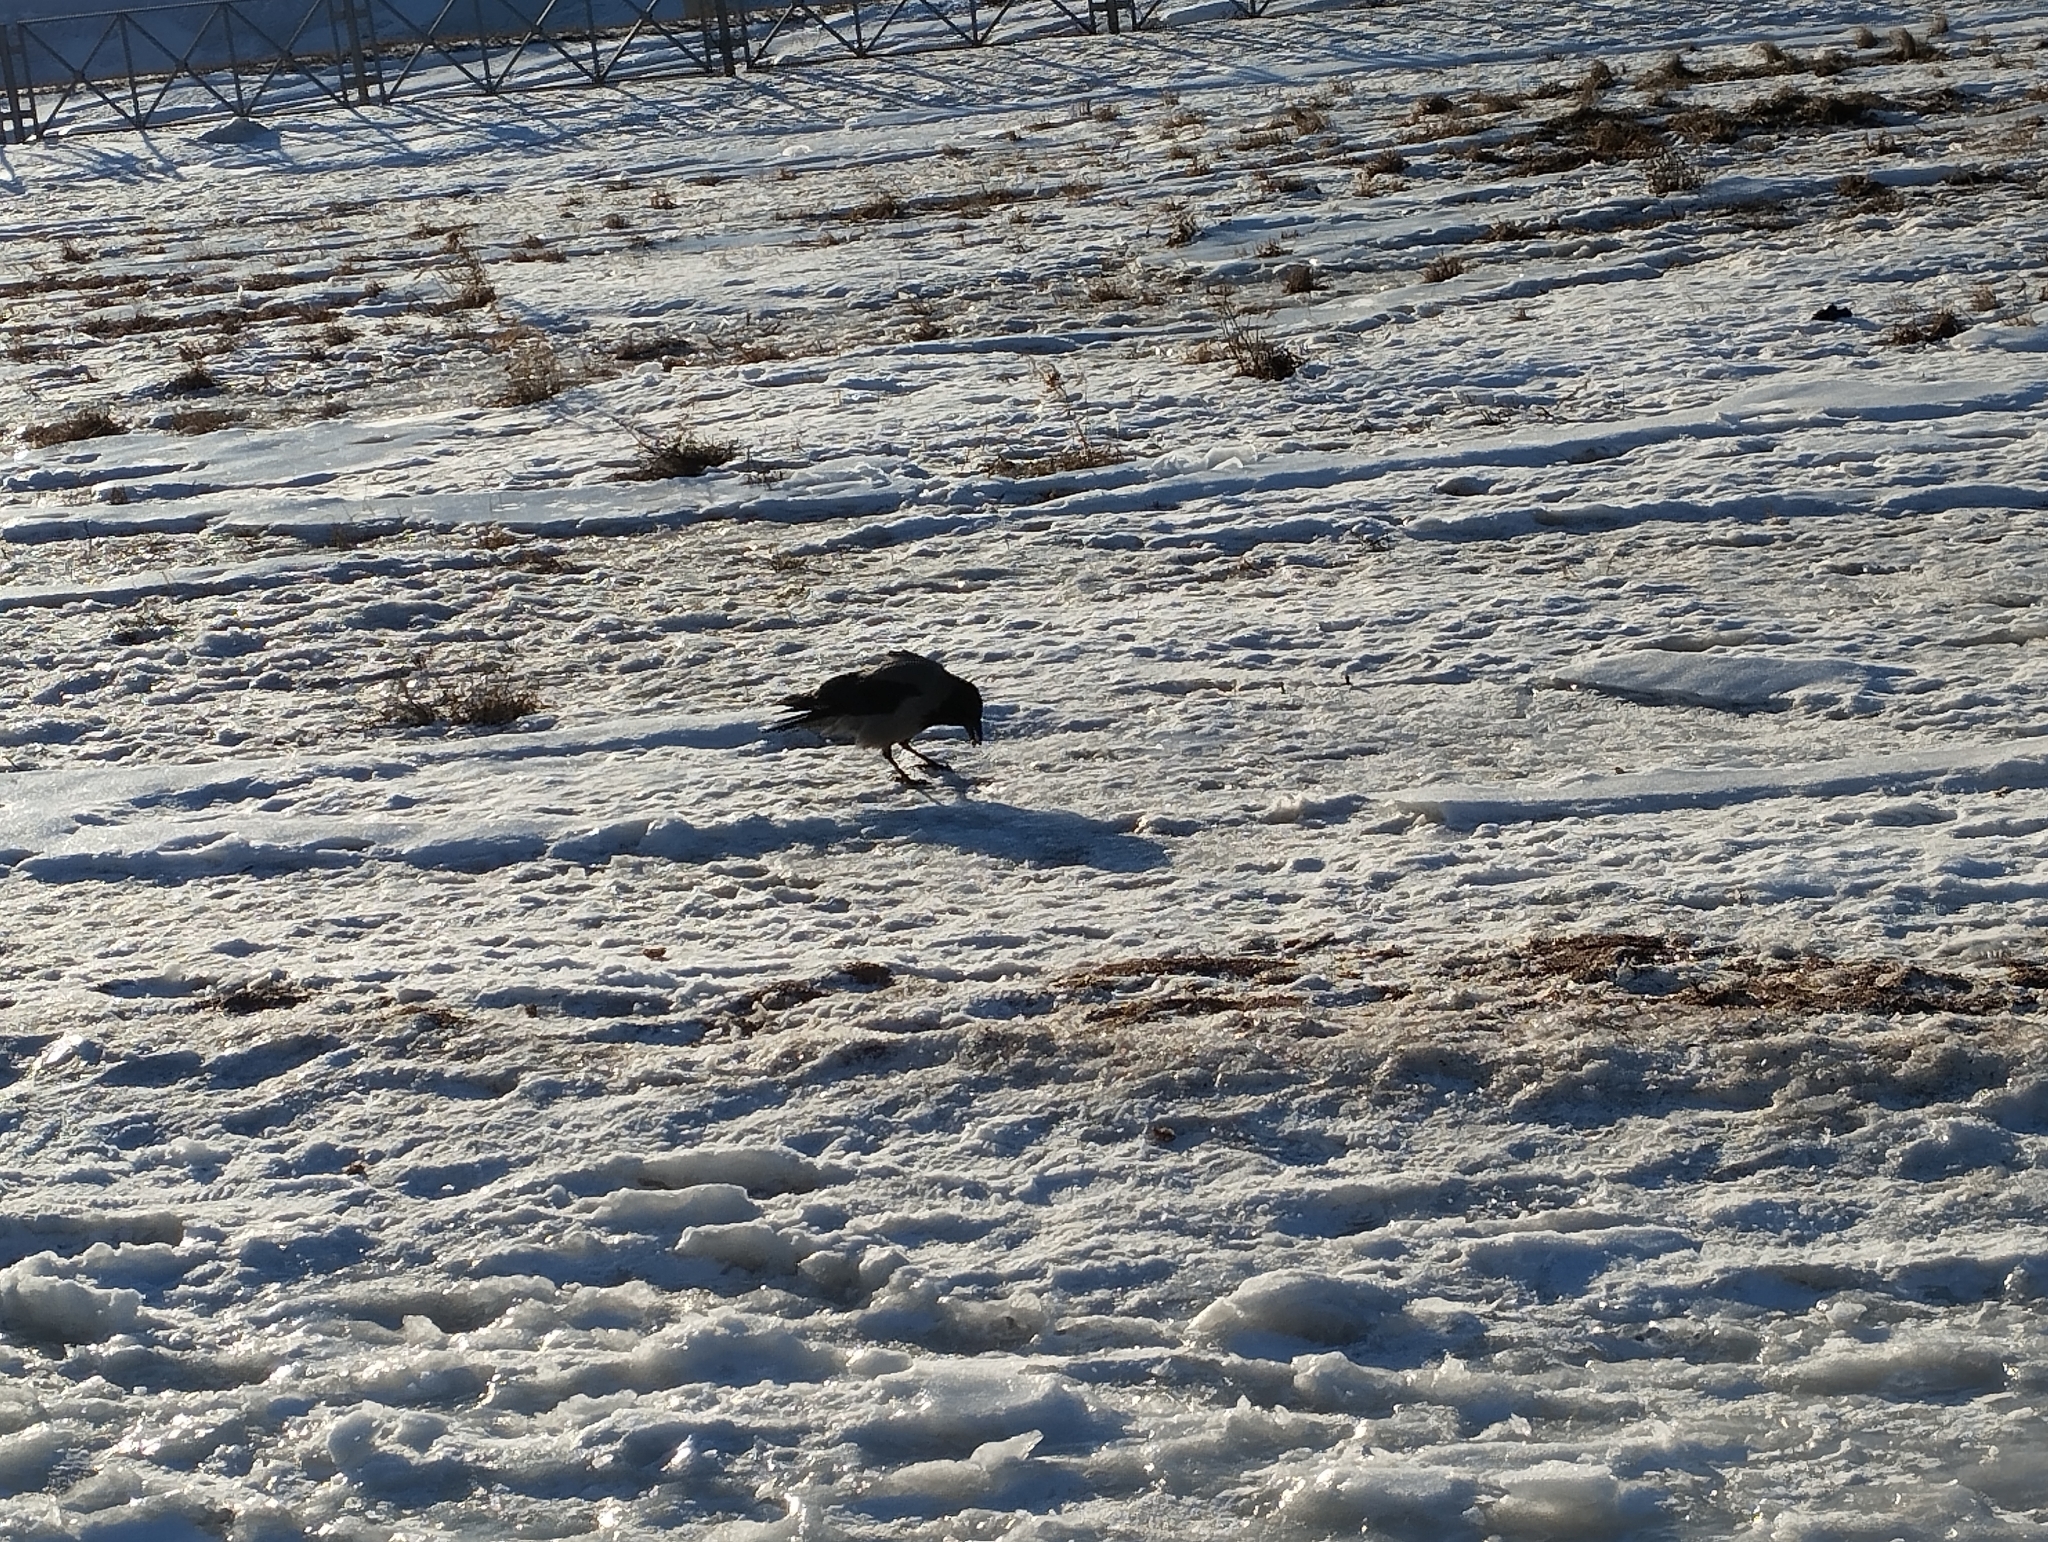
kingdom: Animalia
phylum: Chordata
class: Aves
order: Passeriformes
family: Corvidae
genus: Corvus
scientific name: Corvus cornix
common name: Hooded crow
